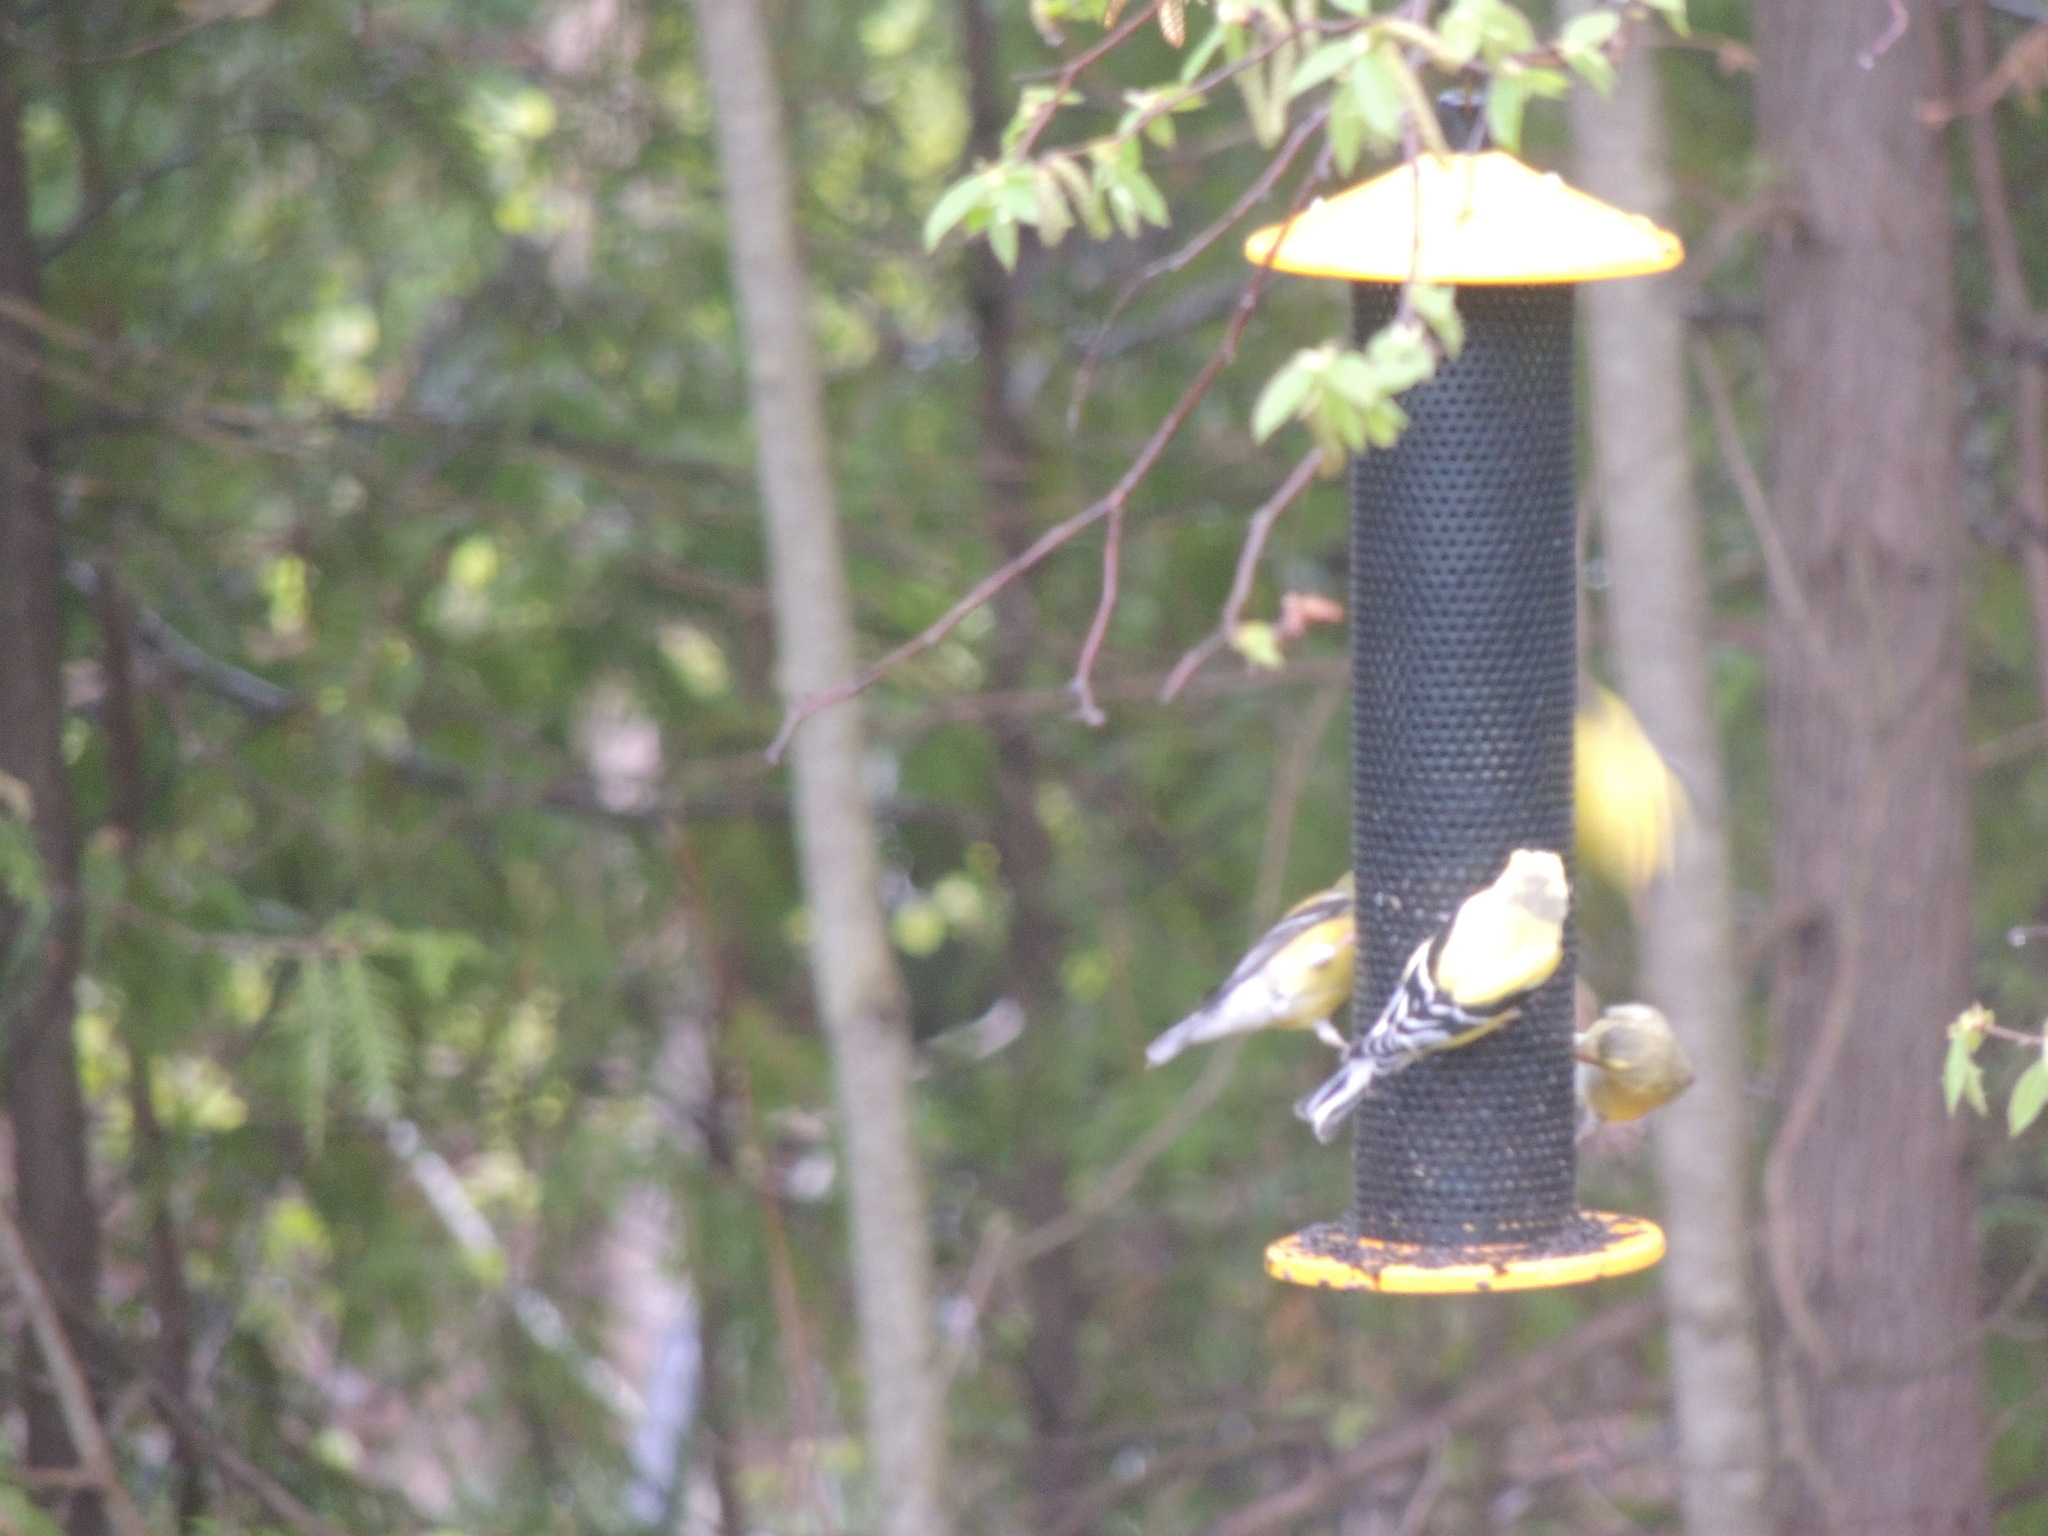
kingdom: Animalia
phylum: Chordata
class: Aves
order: Passeriformes
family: Fringillidae
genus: Spinus
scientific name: Spinus tristis
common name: American goldfinch
